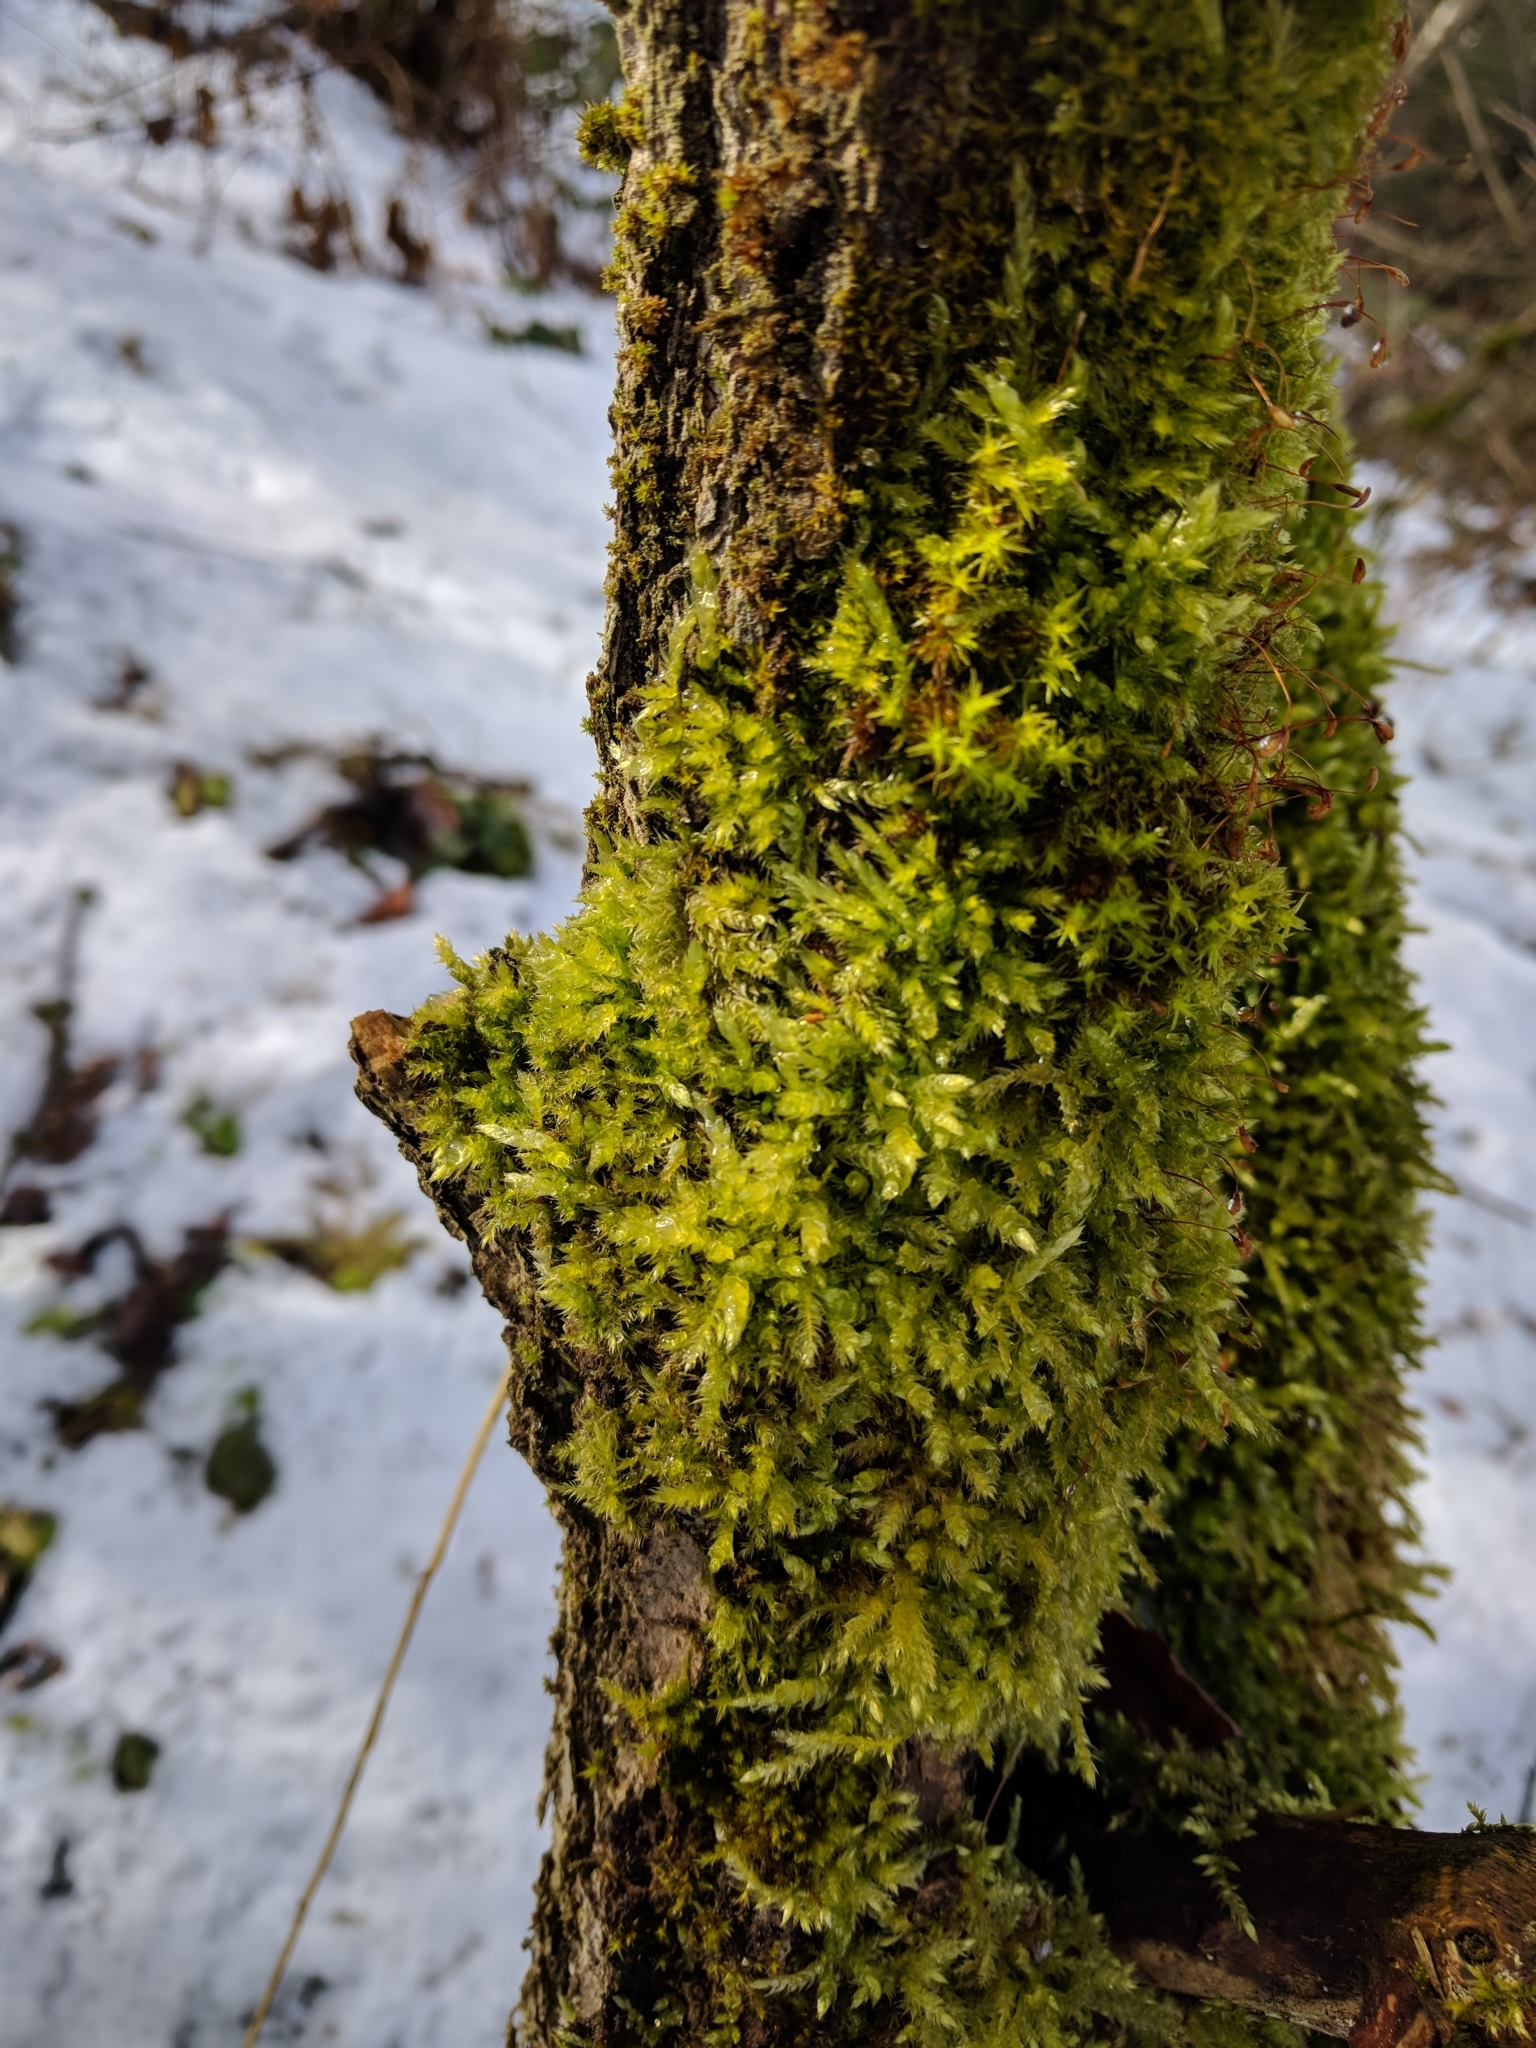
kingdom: Plantae
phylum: Bryophyta
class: Bryopsida
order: Hypnales
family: Brachytheciaceae
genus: Brachythecium
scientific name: Brachythecium rutabulum
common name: Rough-stalked feather-moss
